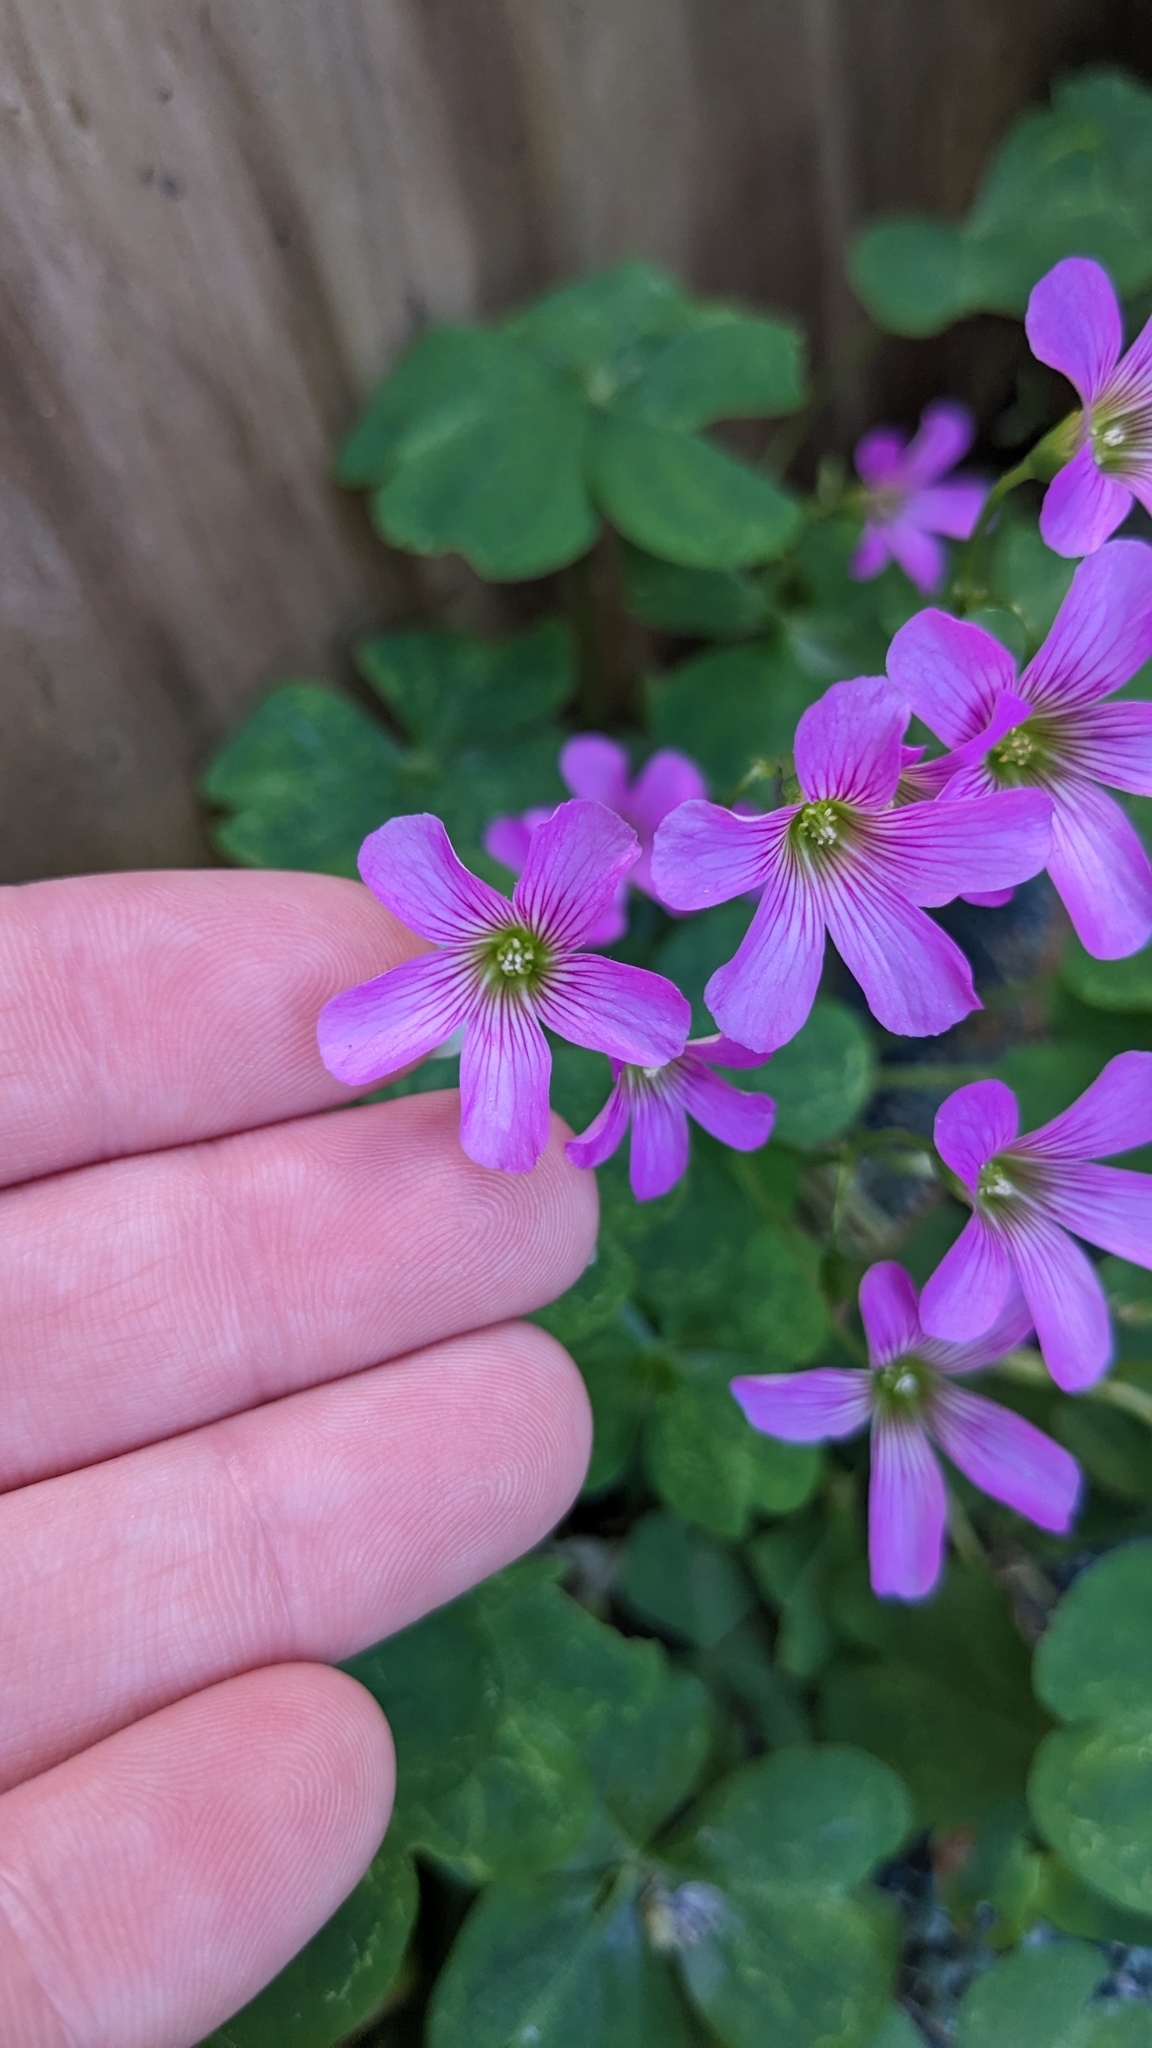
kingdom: Plantae
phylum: Tracheophyta
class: Magnoliopsida
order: Oxalidales
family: Oxalidaceae
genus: Oxalis
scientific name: Oxalis debilis
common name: Large-flowered pink-sorrel
